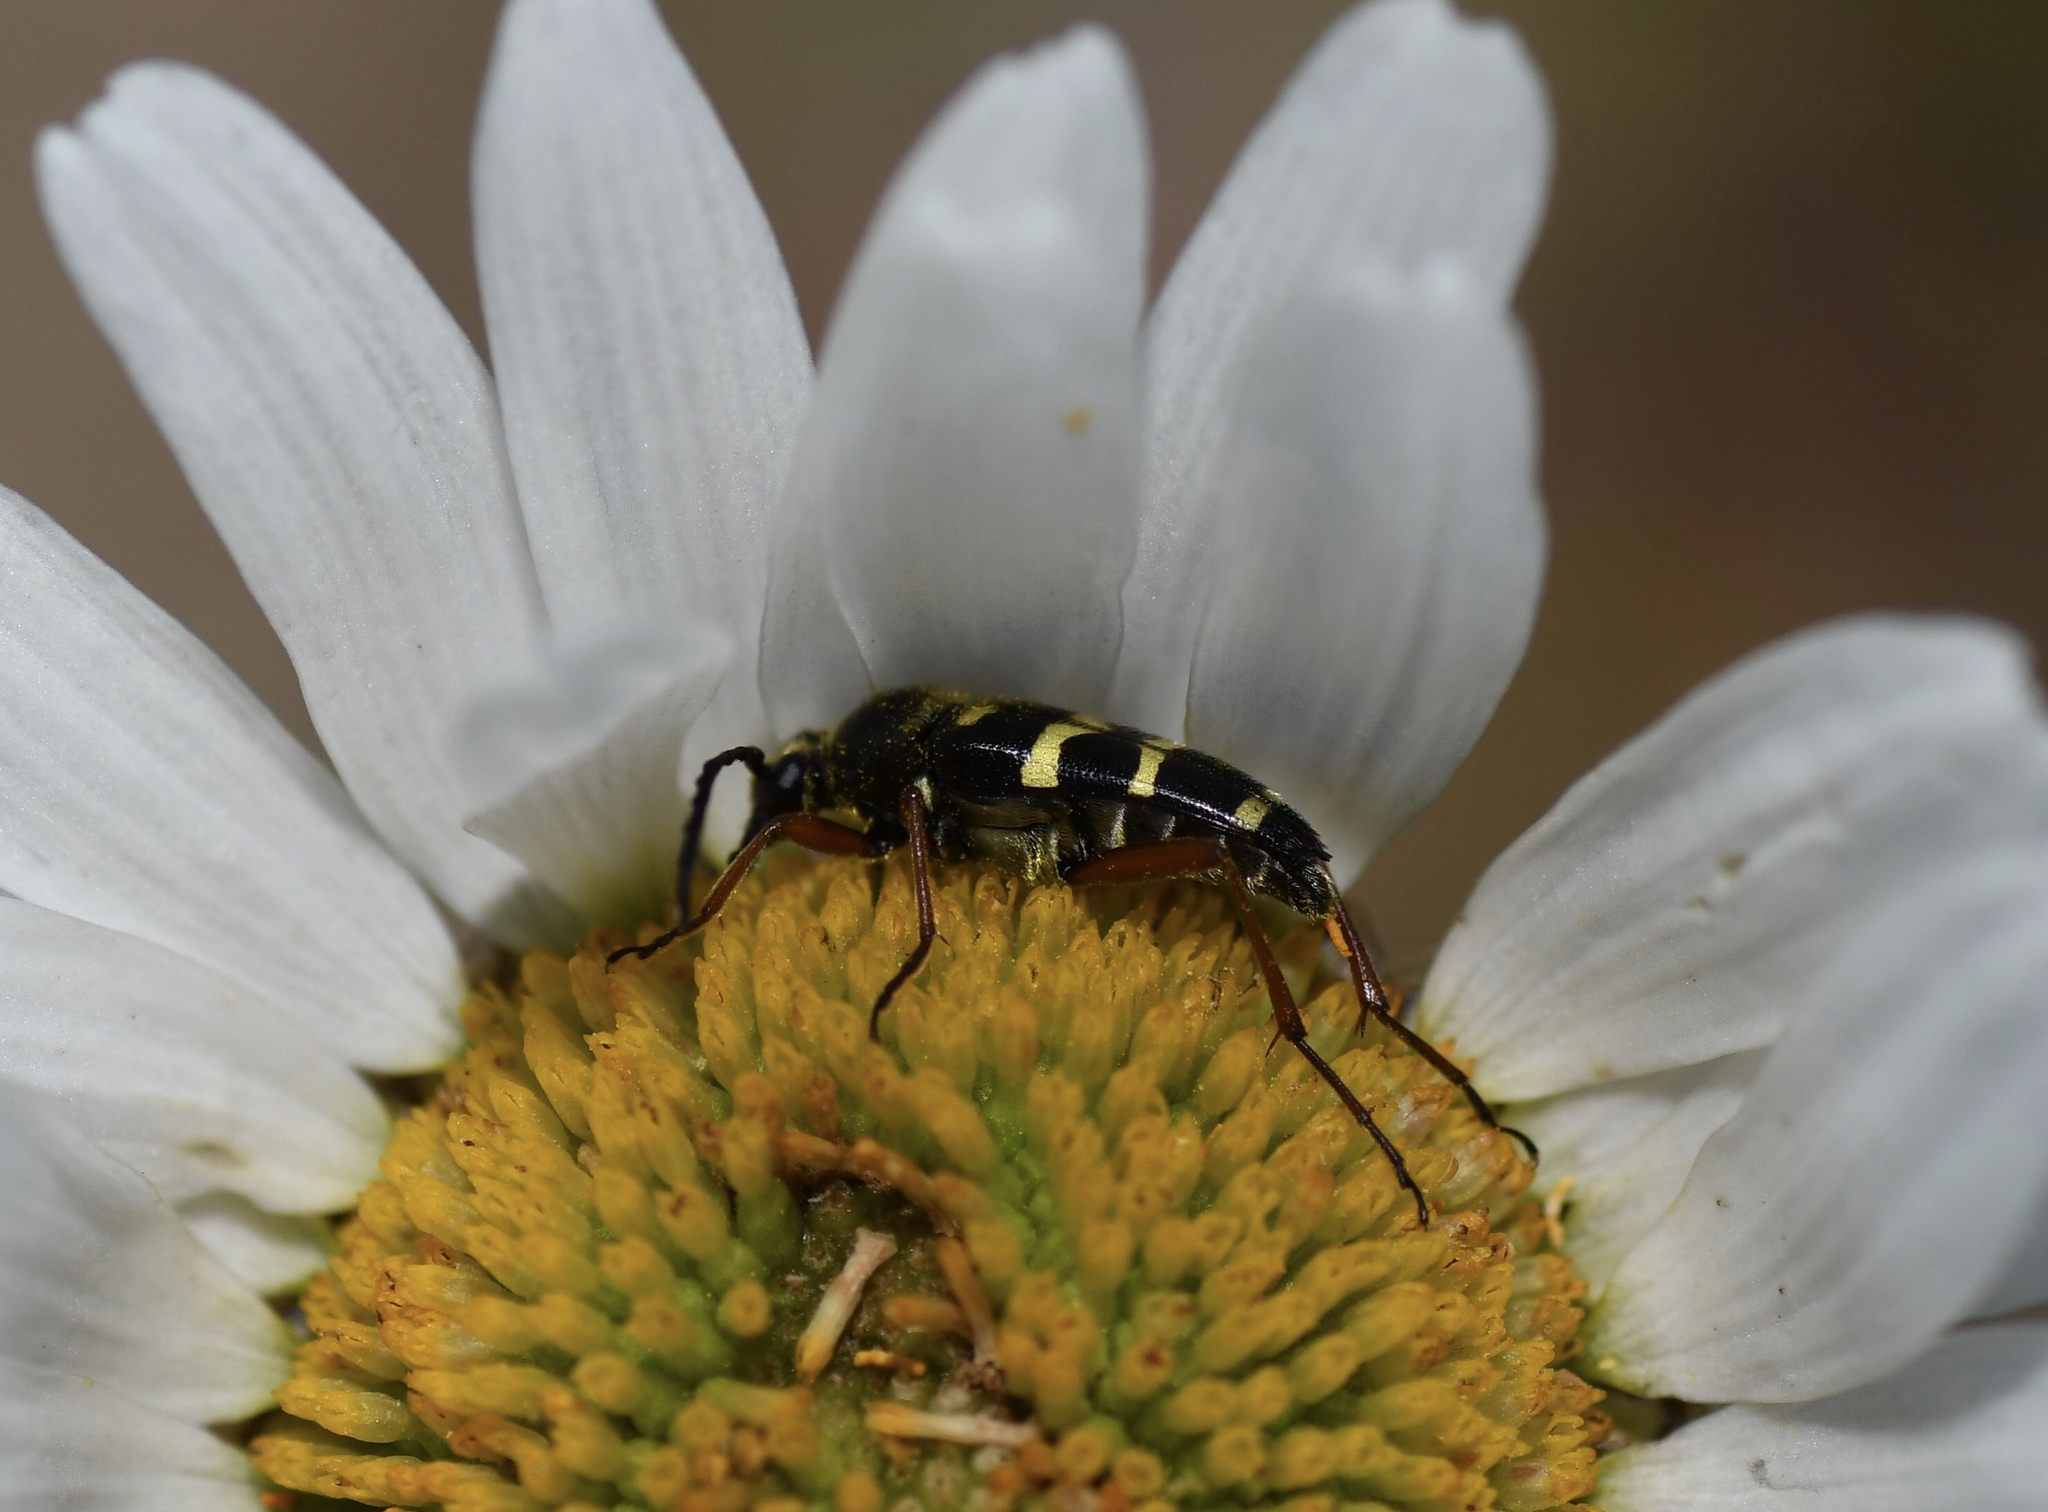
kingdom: Animalia
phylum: Arthropoda
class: Insecta
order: Coleoptera
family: Cerambycidae
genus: Typocerus
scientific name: Typocerus sparsus
